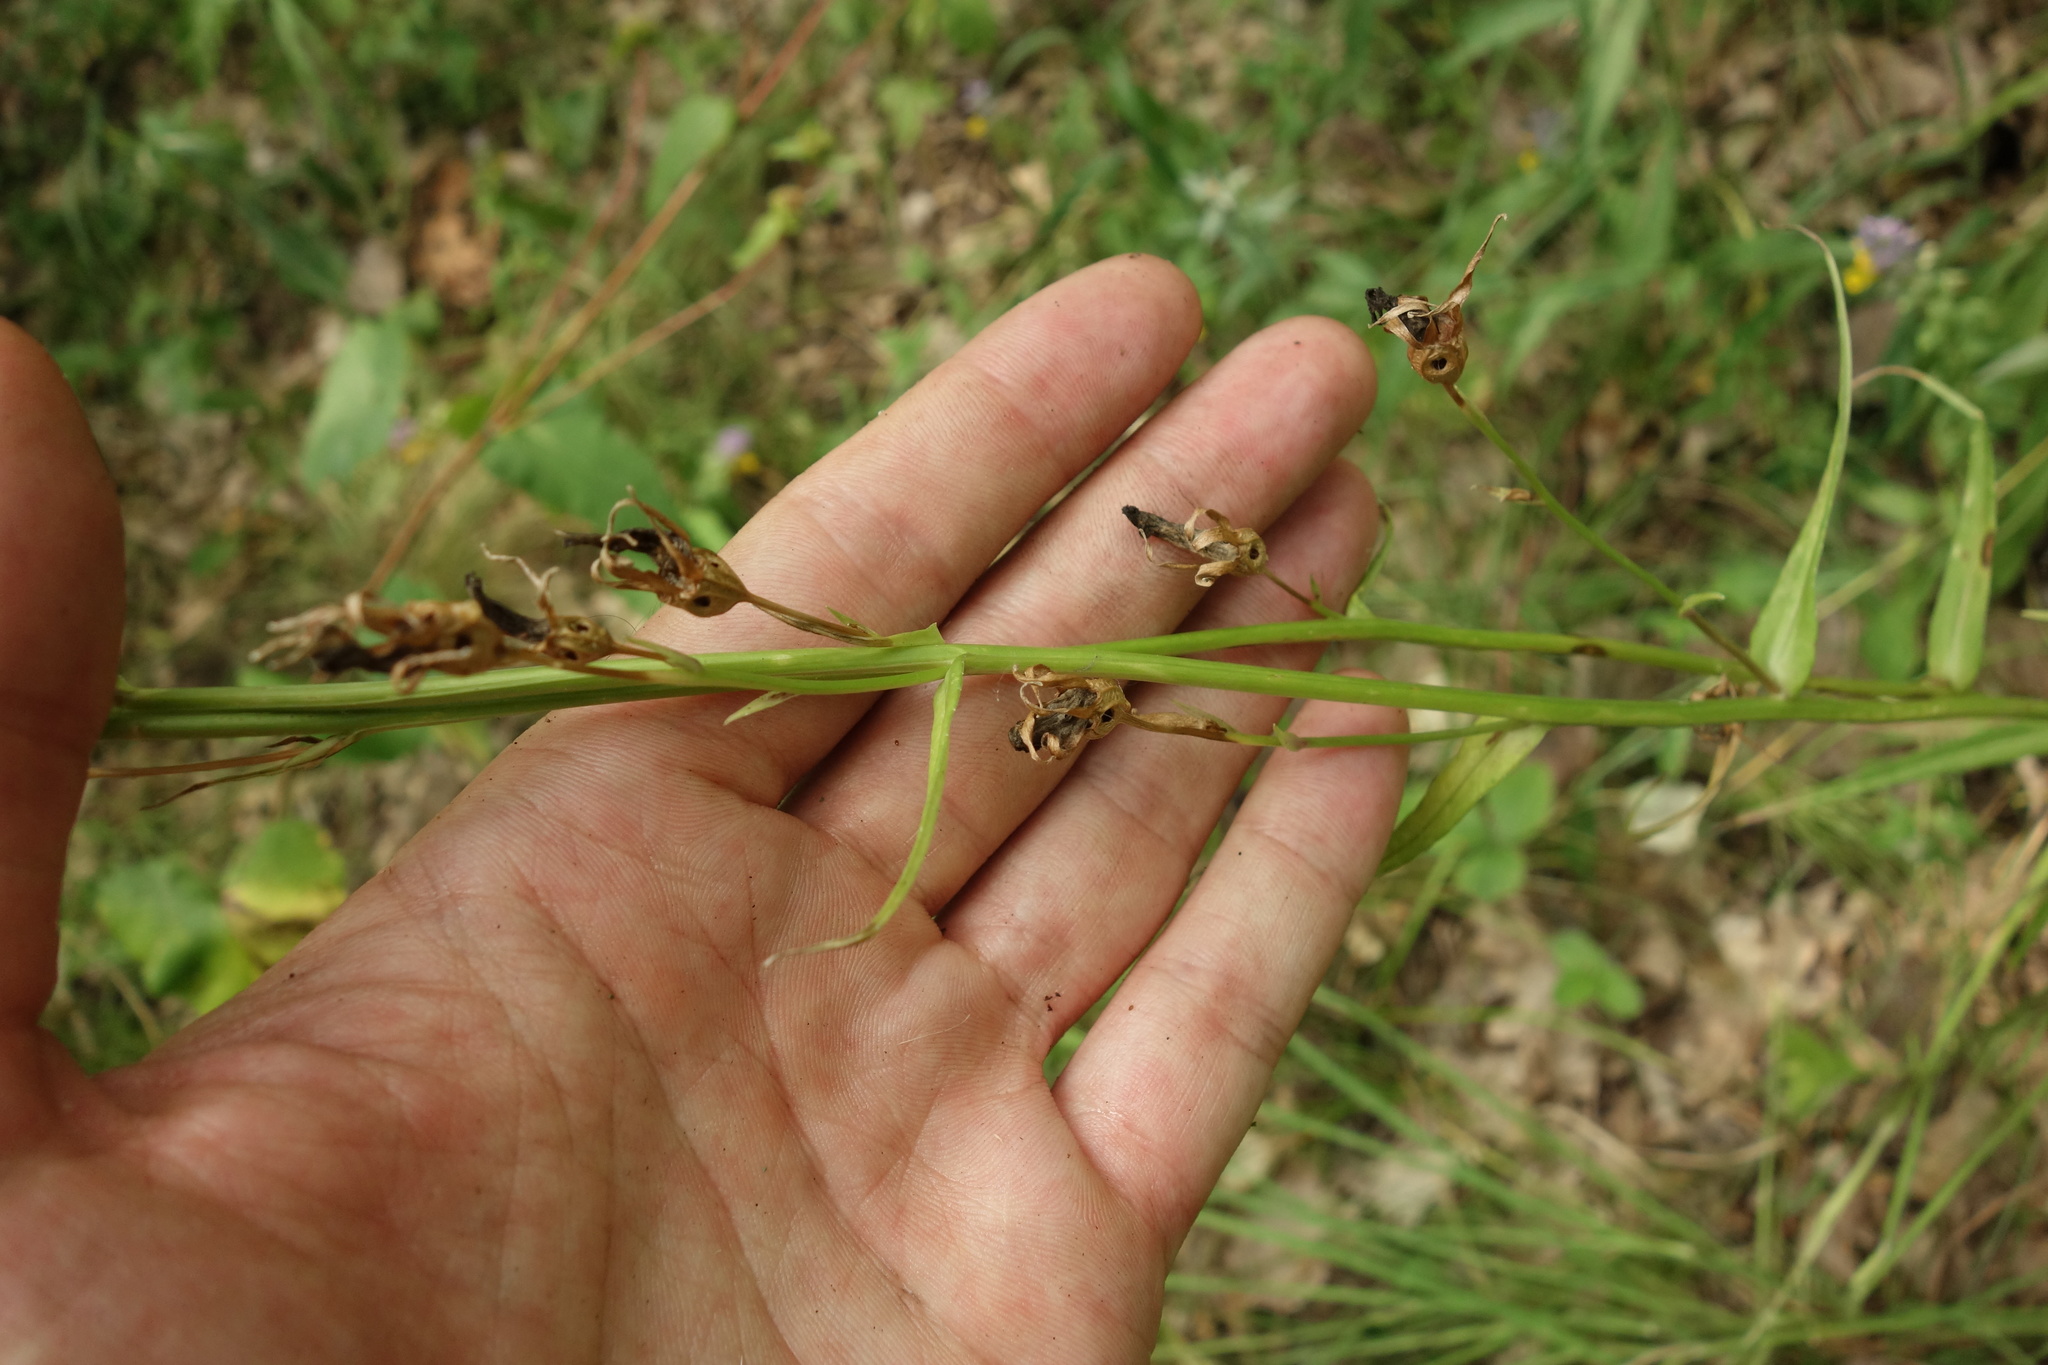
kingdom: Plantae
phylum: Tracheophyta
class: Magnoliopsida
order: Asterales
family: Campanulaceae
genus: Campanula
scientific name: Campanula persicifolia
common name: Peach-leaved bellflower
